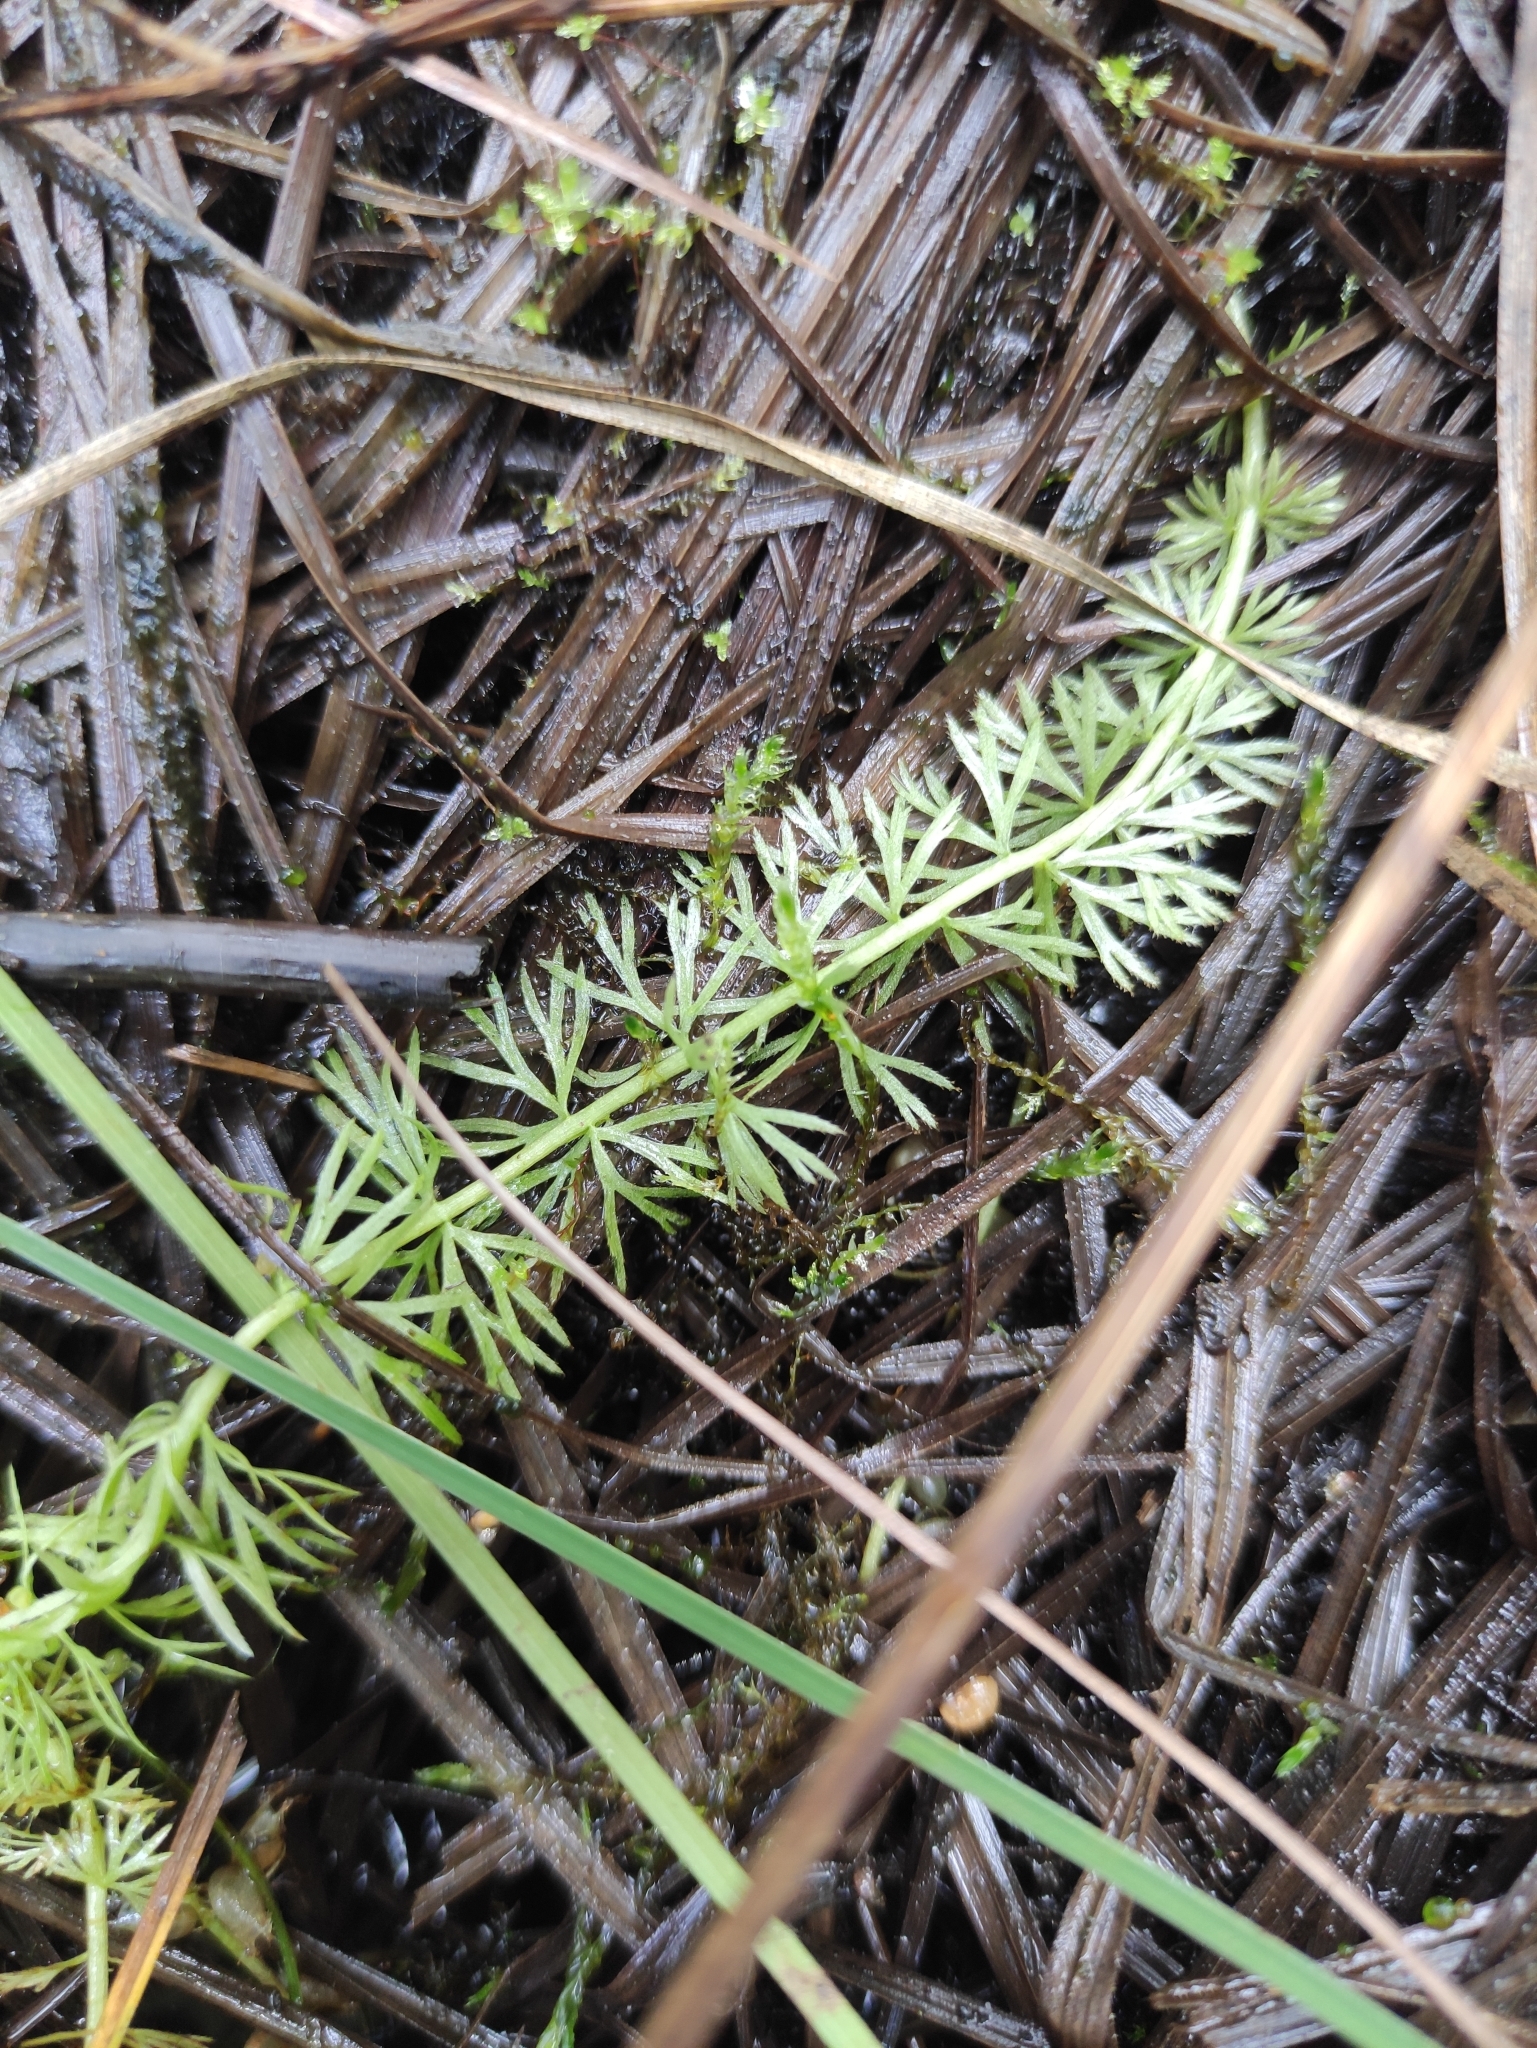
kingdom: Plantae
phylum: Tracheophyta
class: Magnoliopsida
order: Lamiales
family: Lentibulariaceae
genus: Utricularia
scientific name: Utricularia intermedia
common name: Intermediate bladderwort
